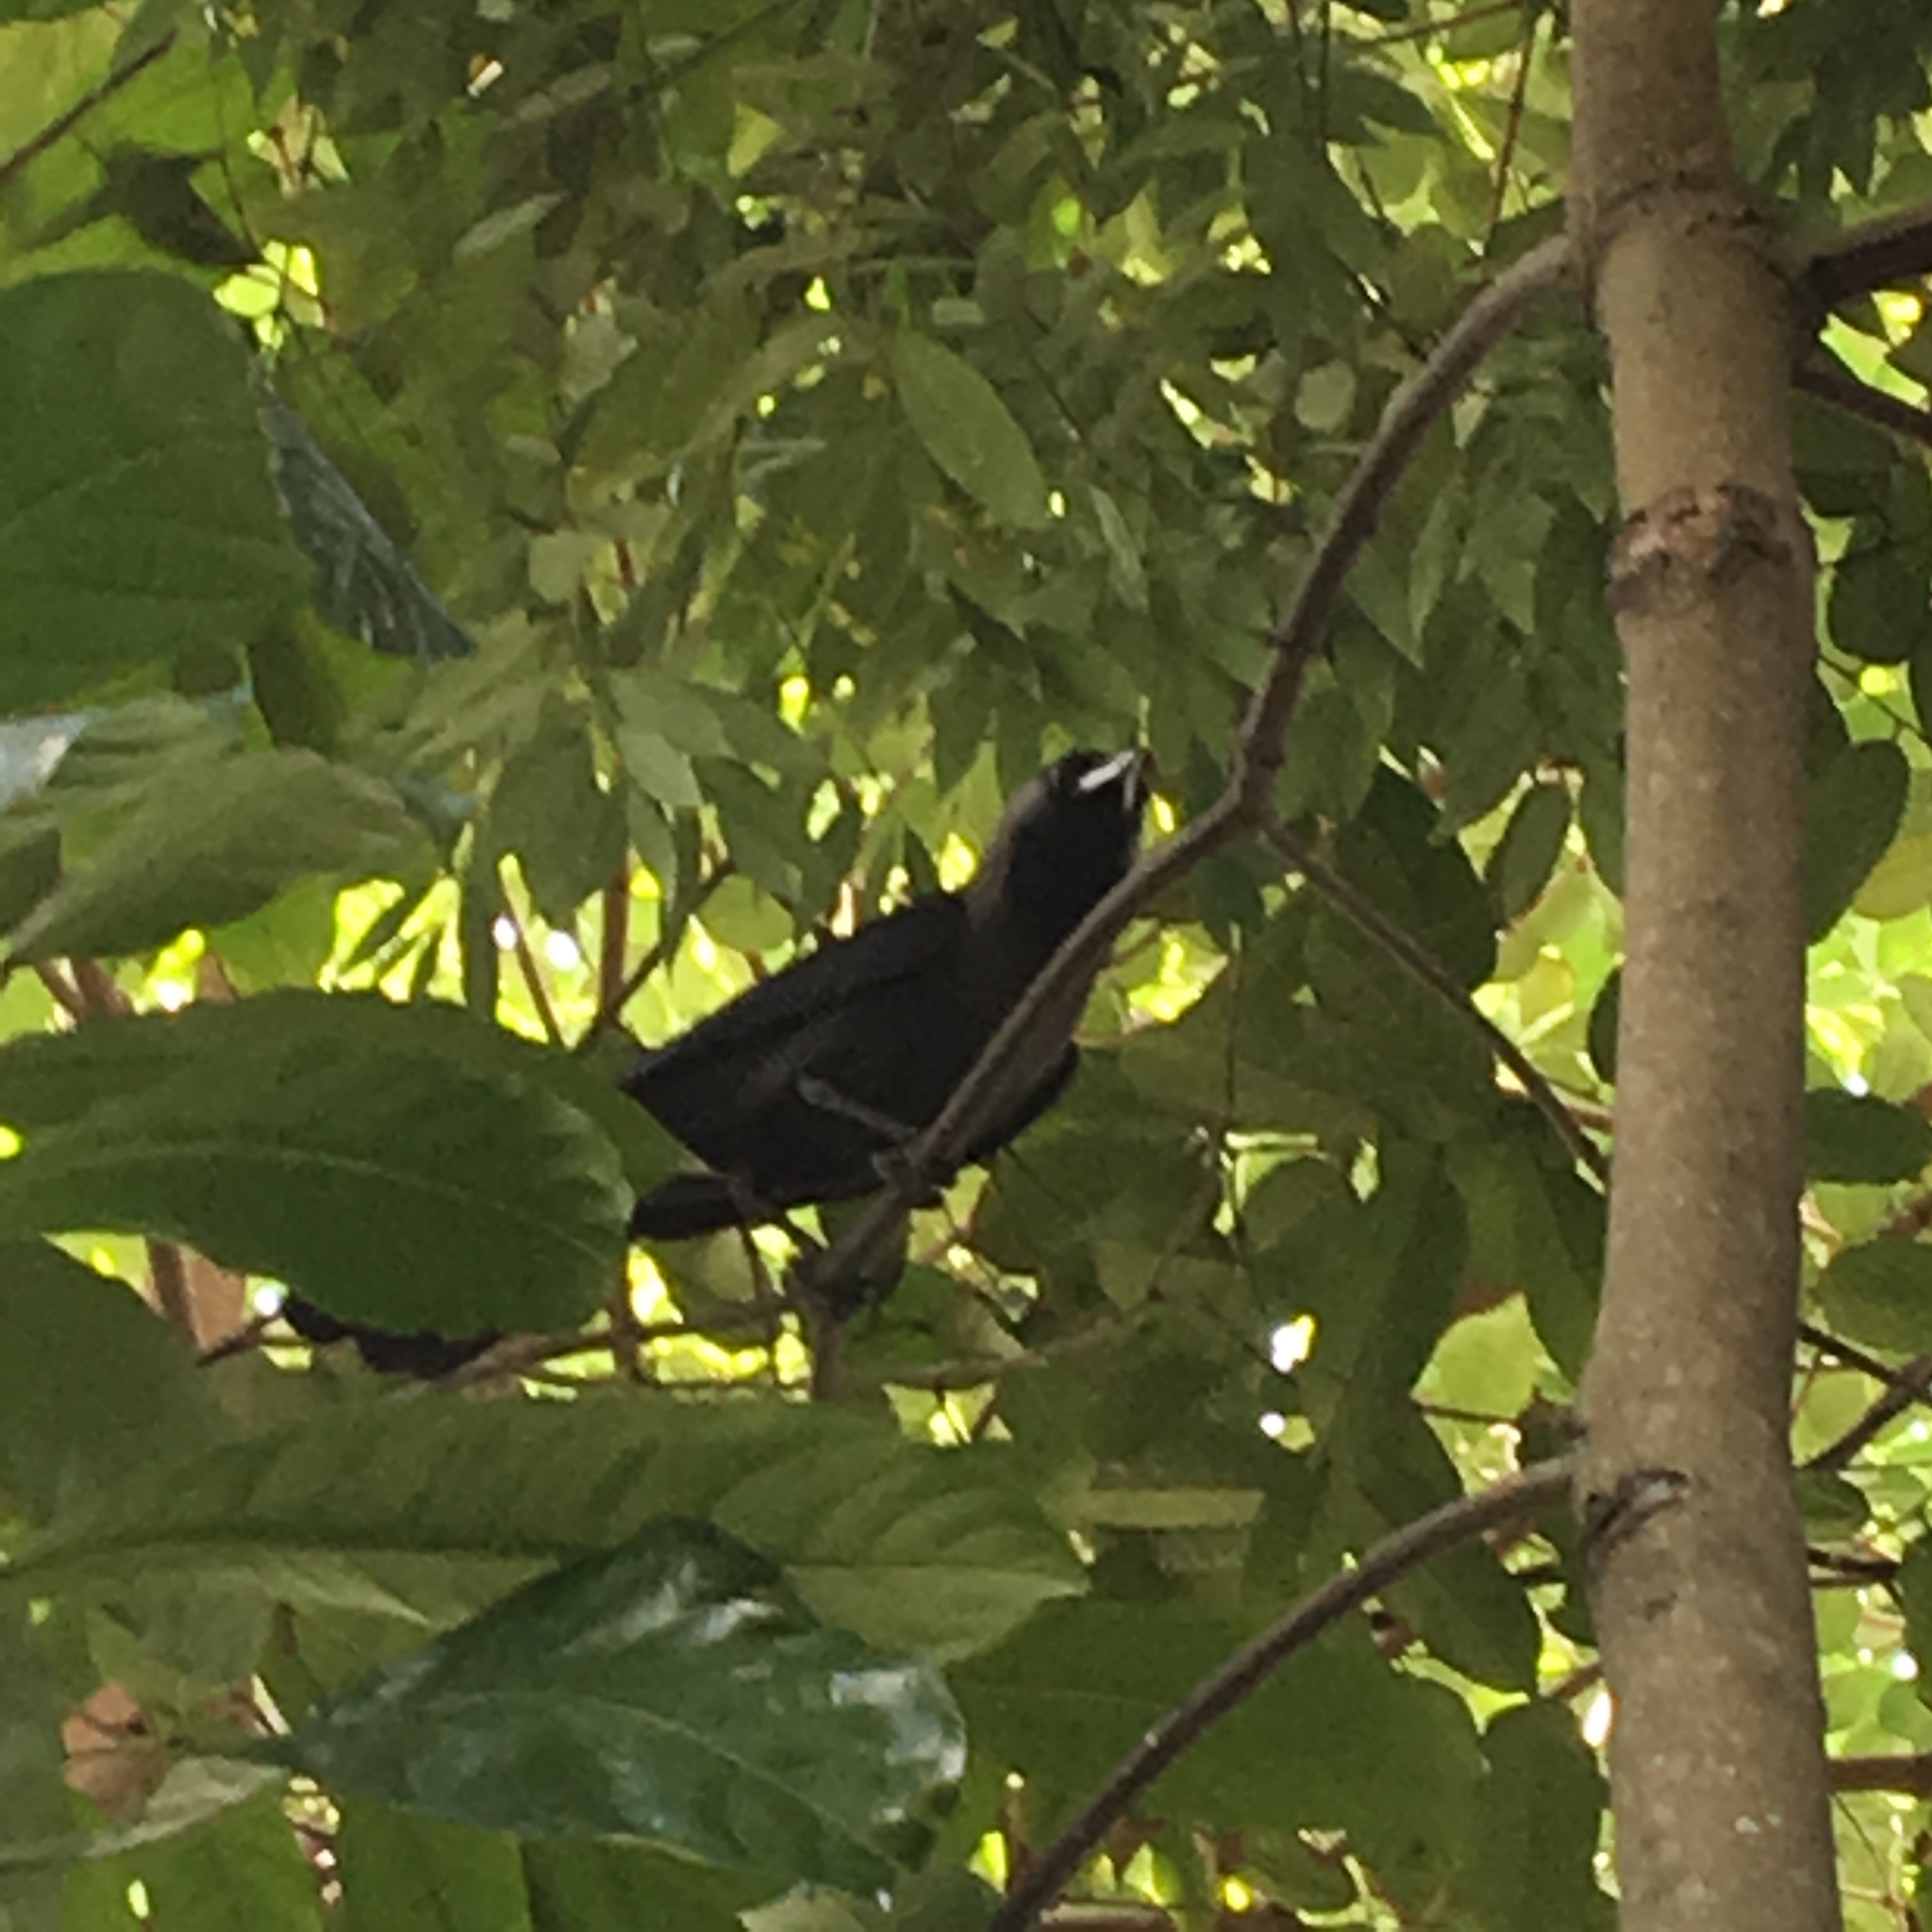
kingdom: Animalia
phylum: Chordata
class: Aves
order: Passeriformes
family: Corvidae
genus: Corvus
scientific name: Corvus splendens
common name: House crow
